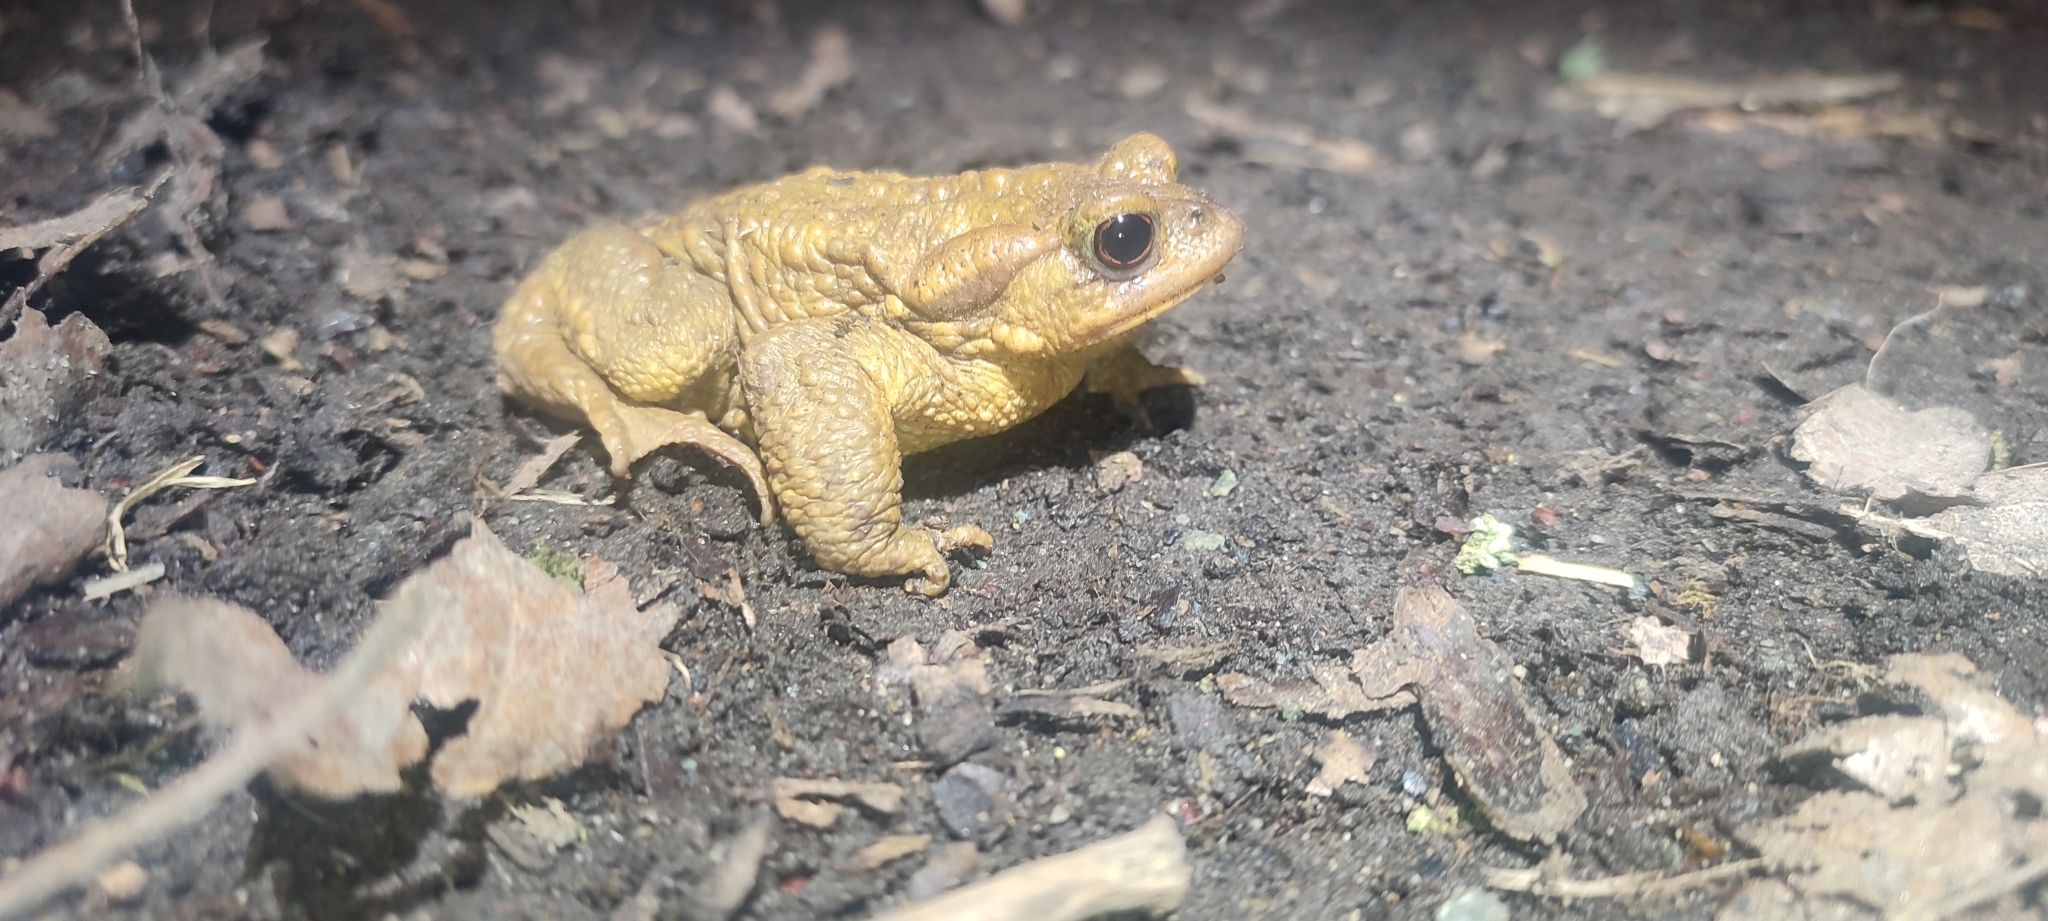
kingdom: Animalia
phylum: Chordata
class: Amphibia
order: Anura
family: Bufonidae
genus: Bufo
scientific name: Bufo spinosus
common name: Western common toad
